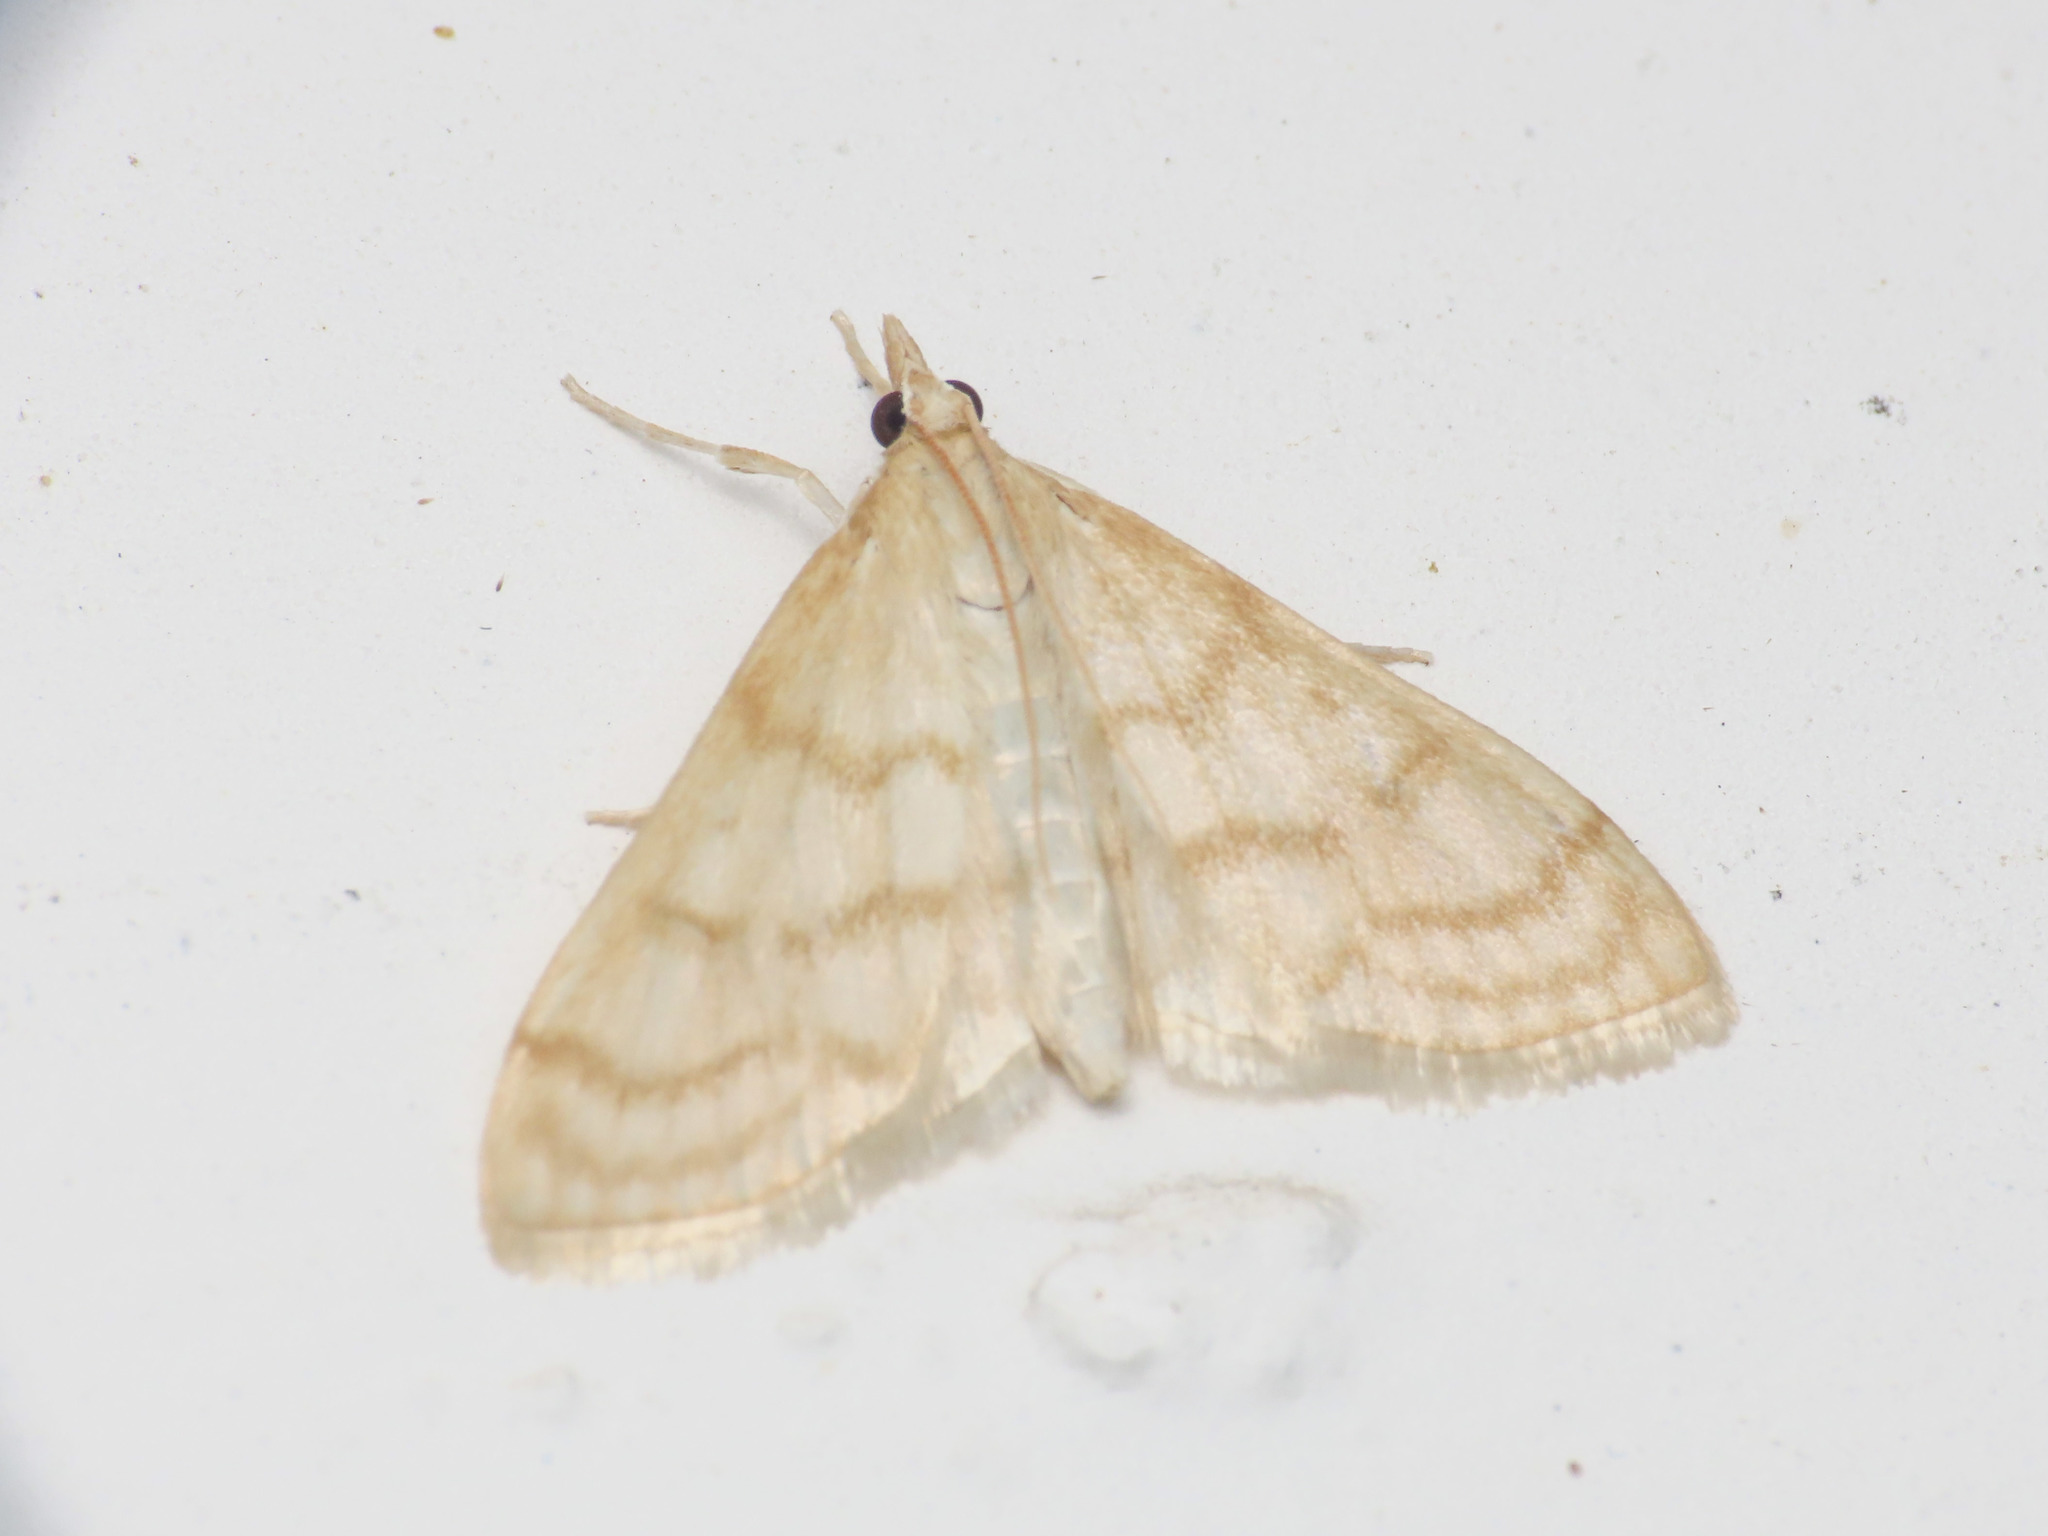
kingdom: Animalia
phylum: Arthropoda
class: Insecta
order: Lepidoptera
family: Crambidae
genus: Paracorsia
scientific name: Paracorsia repandalis
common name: Mullein moth
